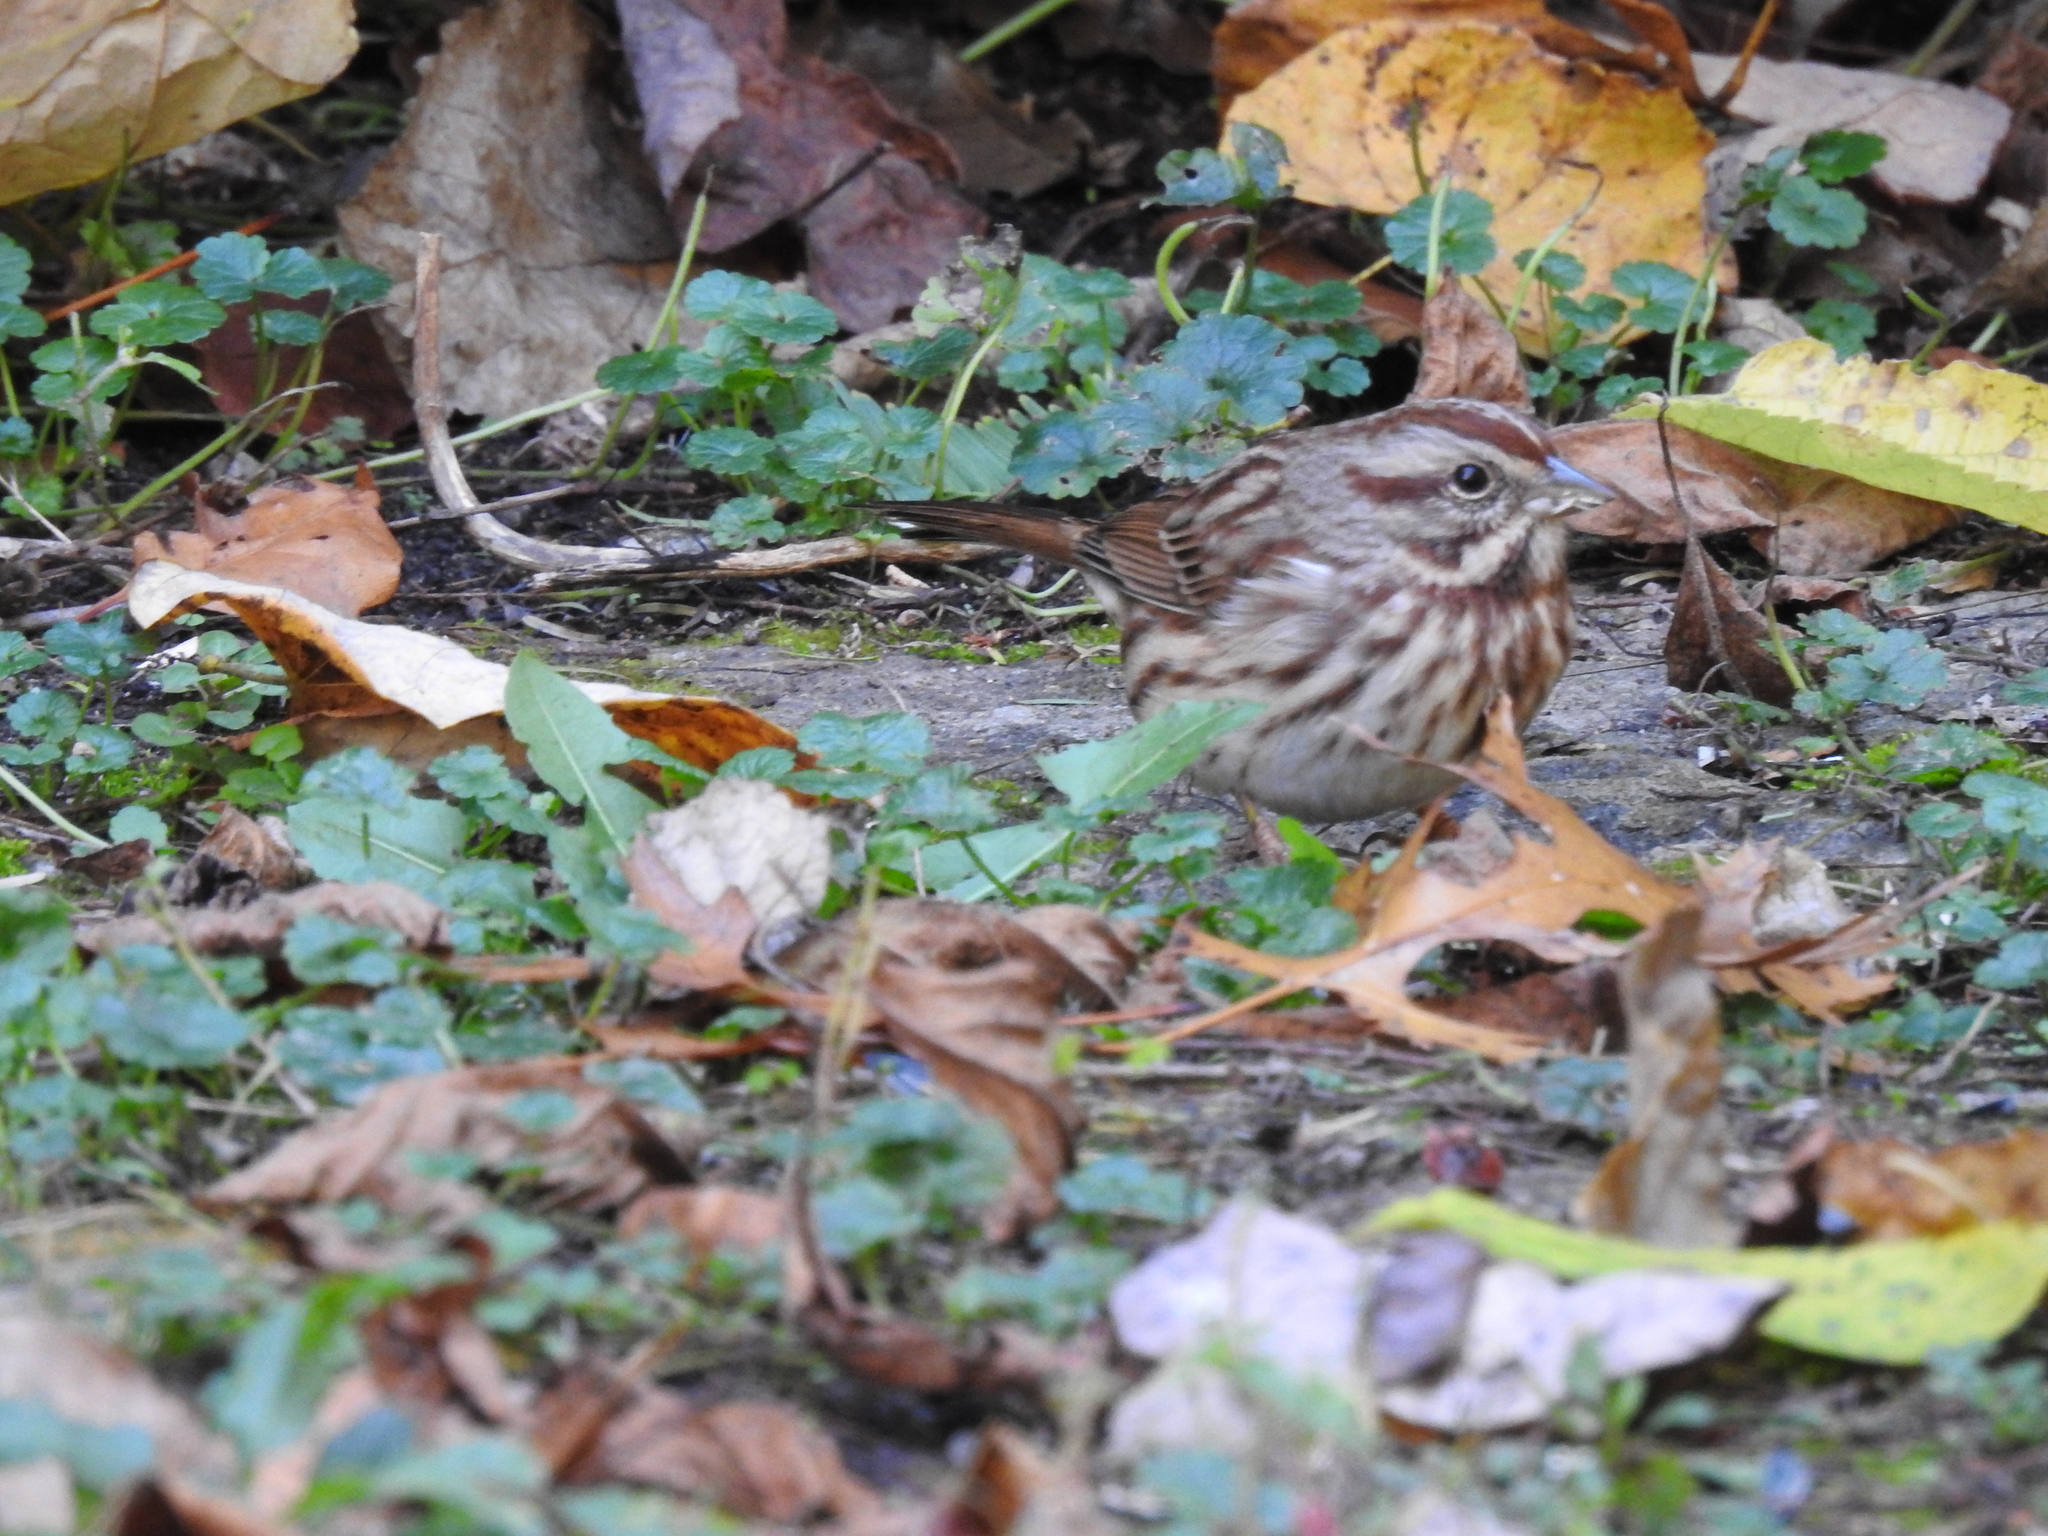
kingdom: Animalia
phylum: Chordata
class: Aves
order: Passeriformes
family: Passerellidae
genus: Melospiza
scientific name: Melospiza melodia
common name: Song sparrow
